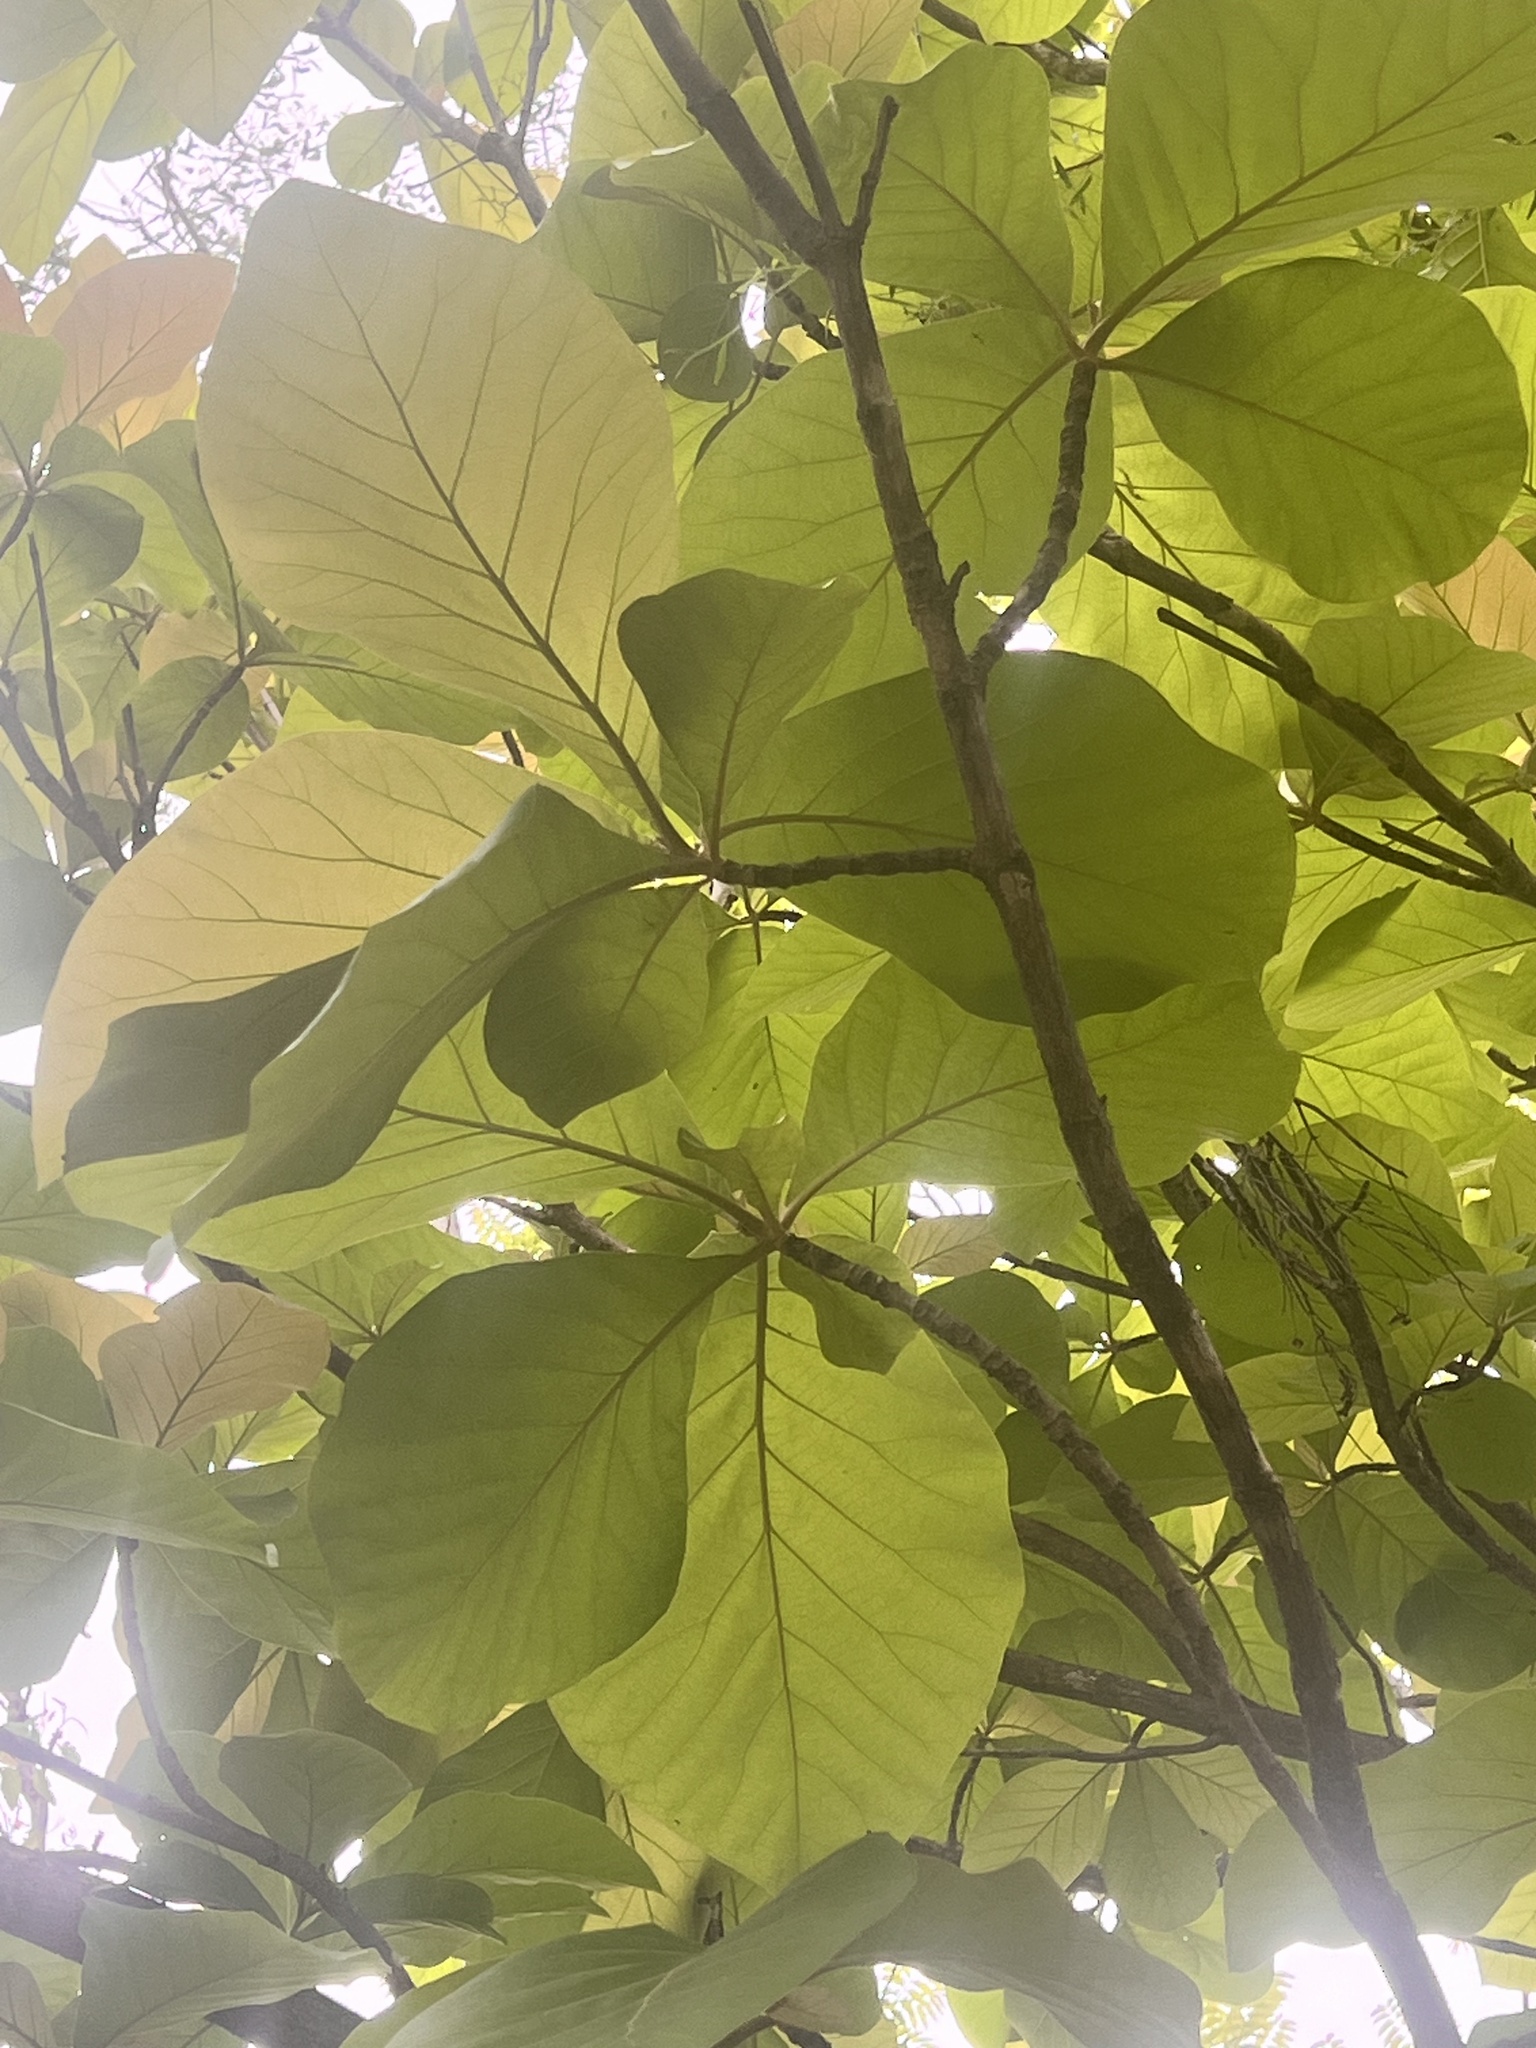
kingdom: Plantae
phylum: Tracheophyta
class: Magnoliopsida
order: Lamiales
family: Bignoniaceae
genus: Deplanchea
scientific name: Deplanchea tetraphylla
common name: Deplanchea
